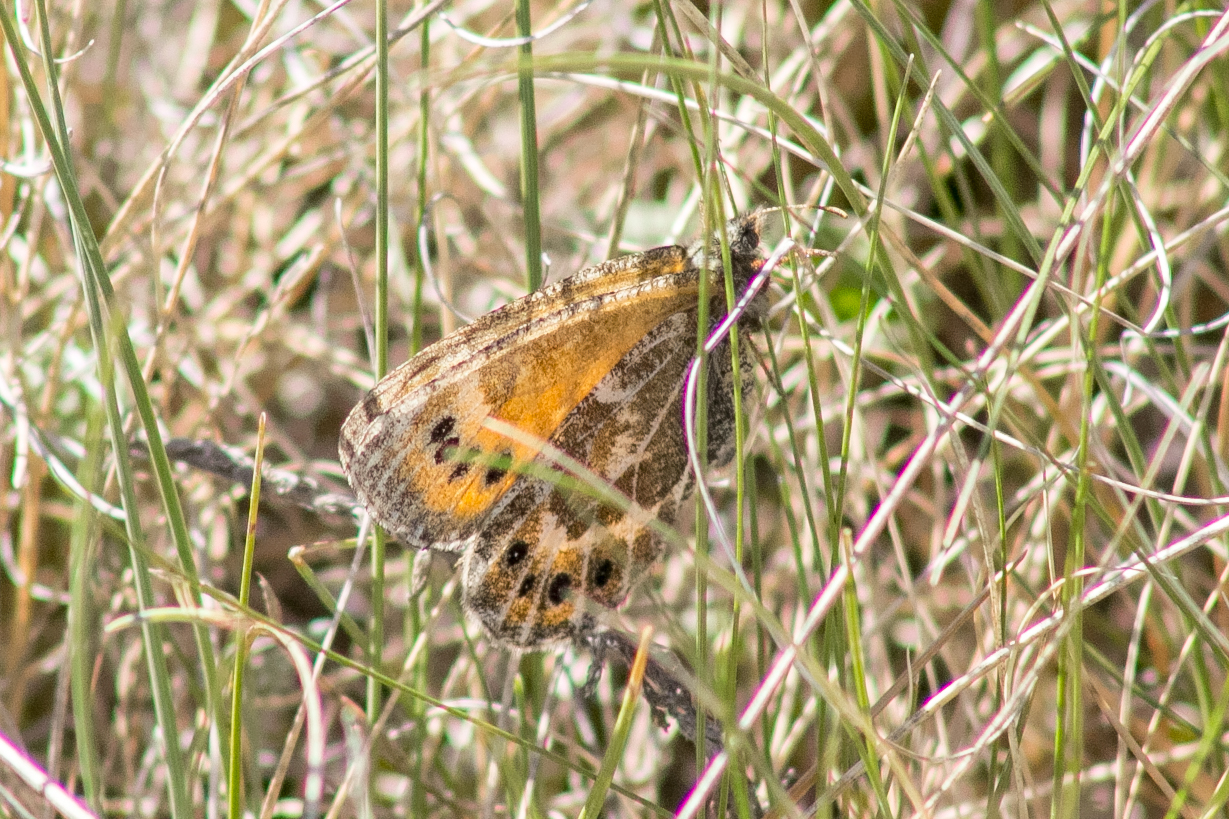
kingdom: Animalia
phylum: Arthropoda
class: Insecta
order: Lepidoptera
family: Nymphalidae
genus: Oeneis
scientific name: Oeneis tarpeia
